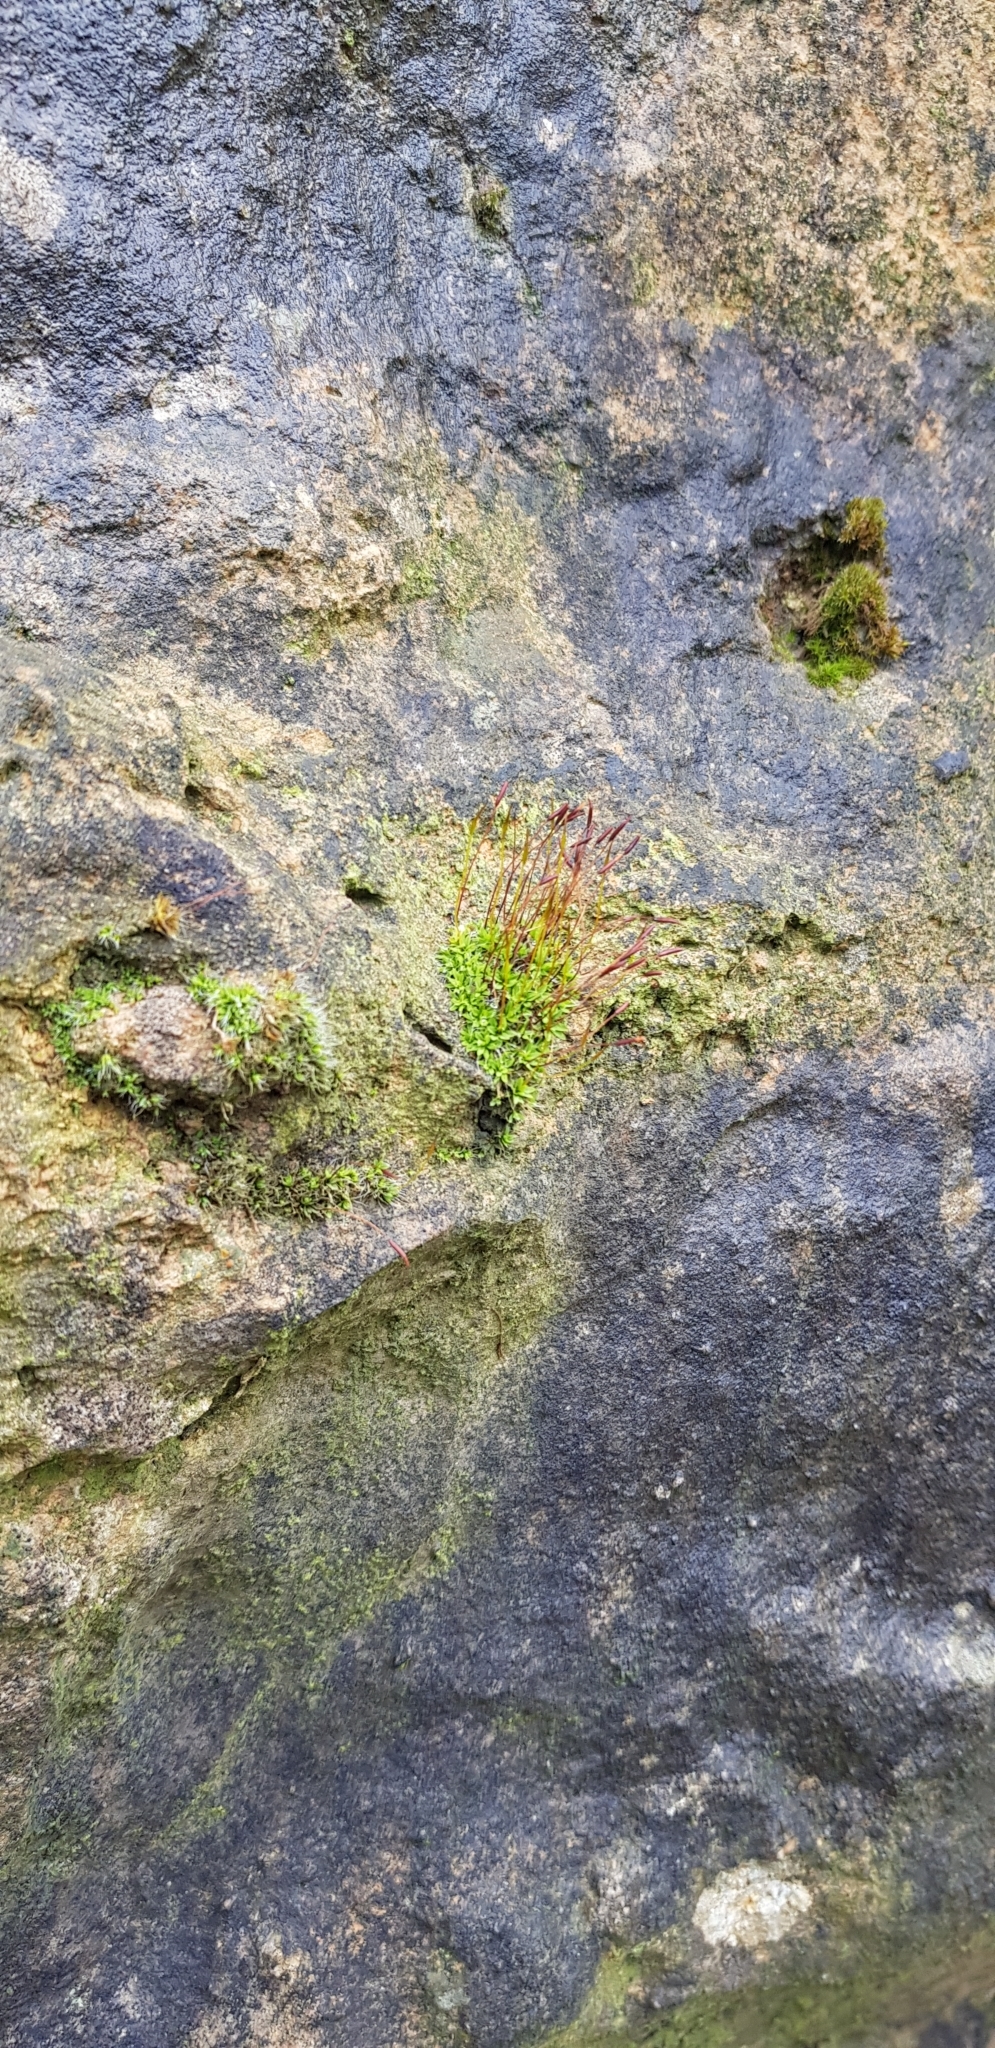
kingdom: Plantae
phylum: Bryophyta
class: Bryopsida
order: Pottiales
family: Pottiaceae
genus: Tortula
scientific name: Tortula muralis
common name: Wall screw-moss
